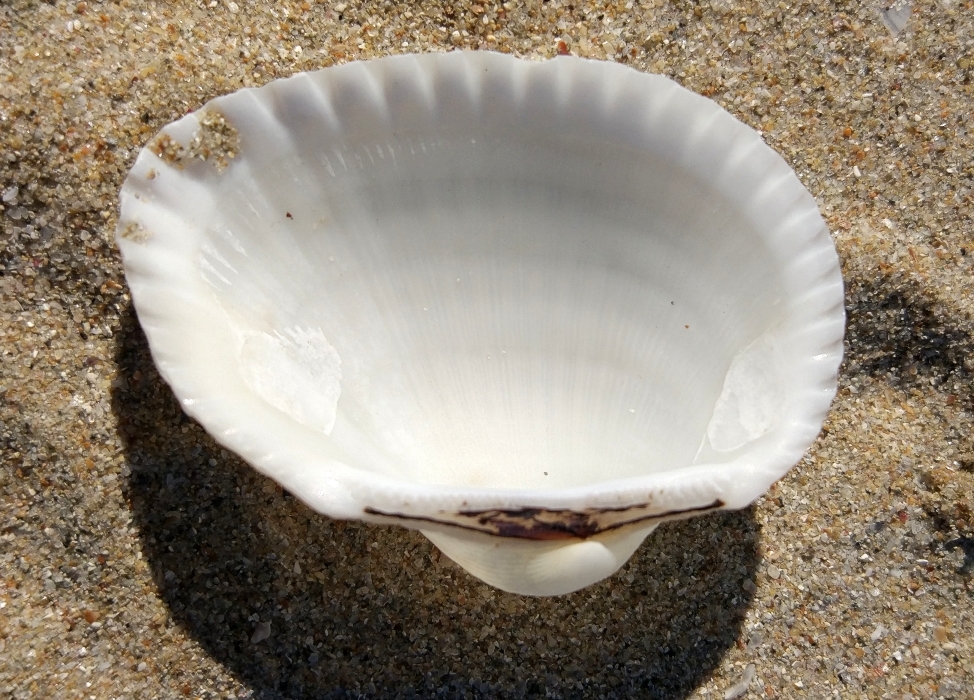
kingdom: Animalia
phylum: Mollusca
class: Bivalvia
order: Arcida
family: Arcidae
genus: Anadara
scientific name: Anadara kagoshimensis
